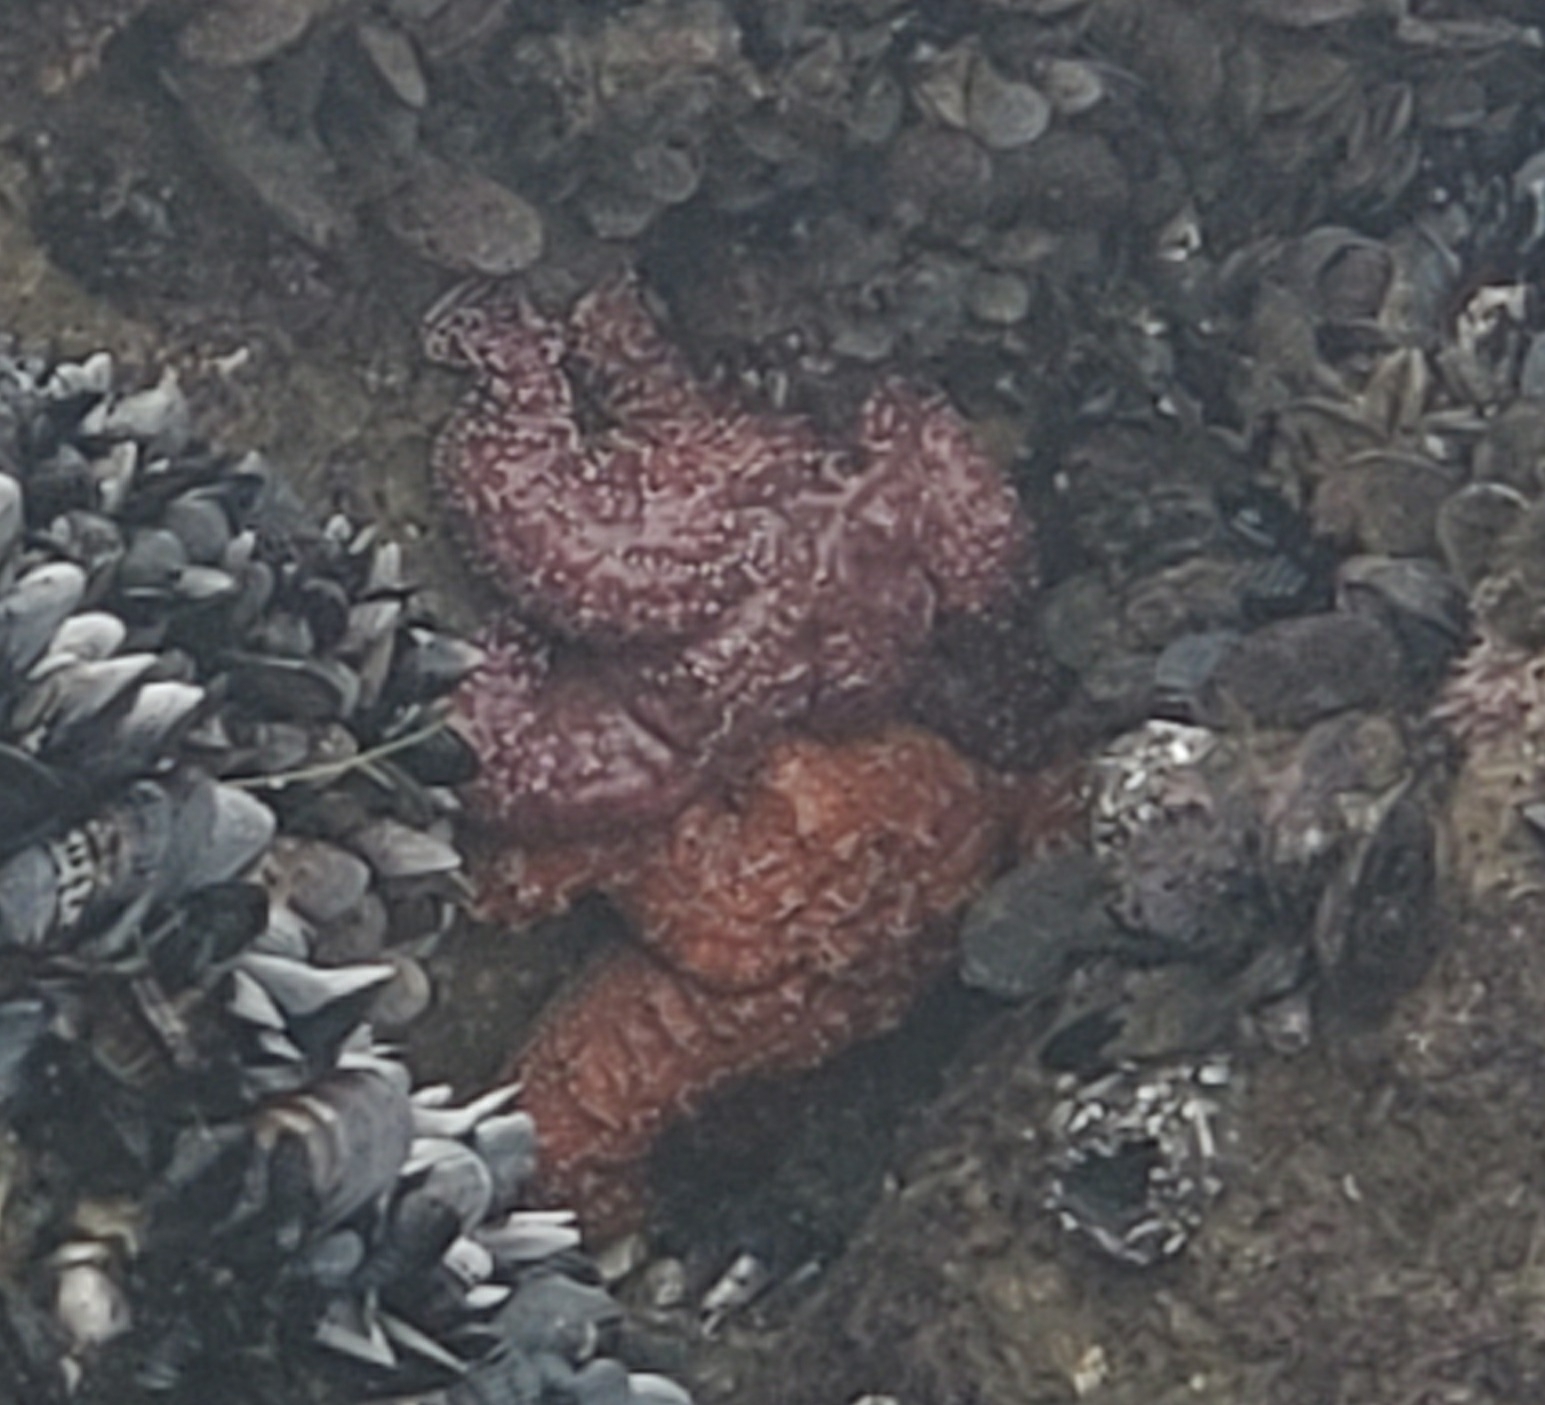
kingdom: Animalia
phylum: Echinodermata
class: Asteroidea
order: Forcipulatida
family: Asteriidae
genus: Pisaster
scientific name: Pisaster ochraceus
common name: Ochre stars
